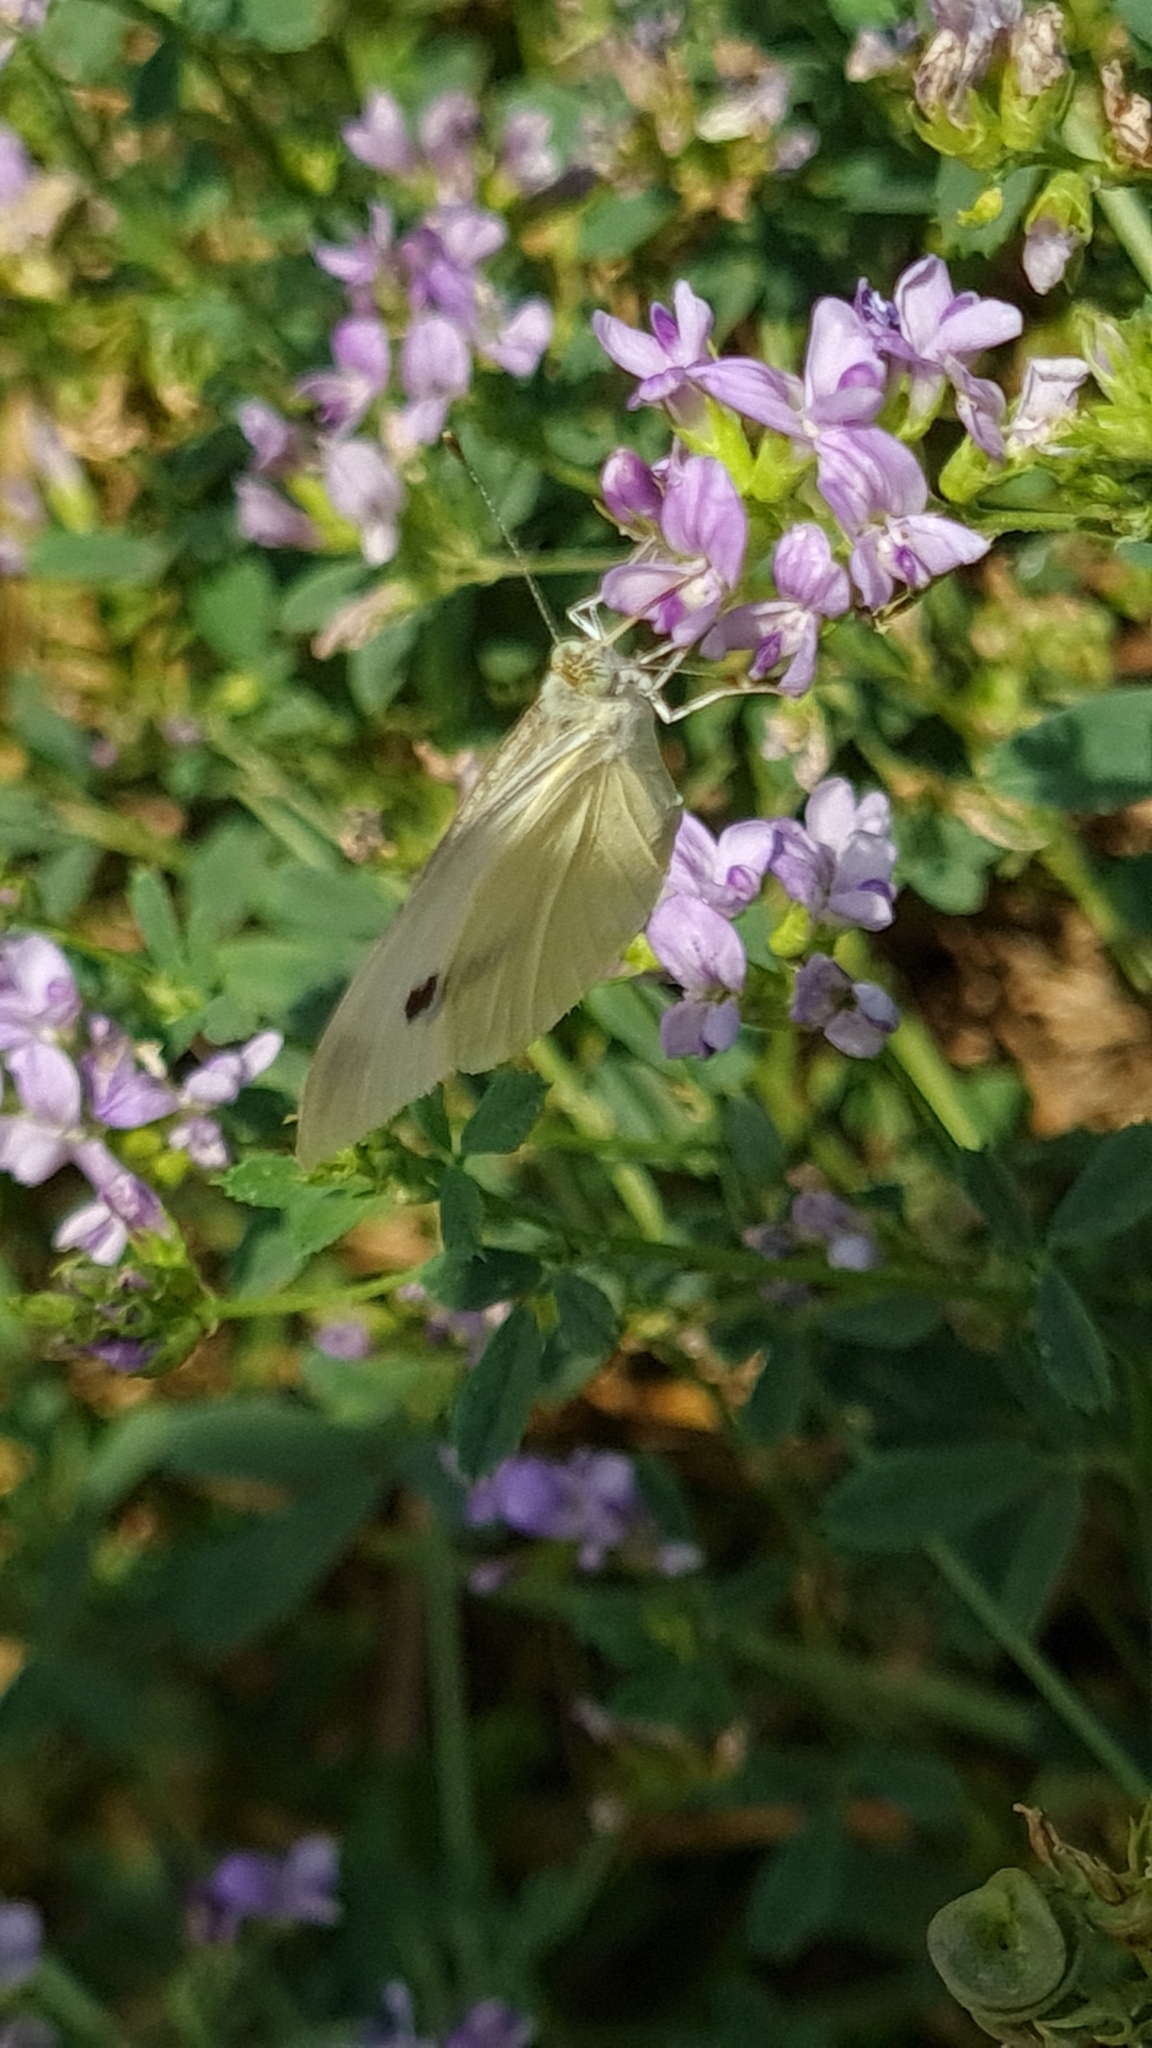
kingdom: Animalia
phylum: Arthropoda
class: Insecta
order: Lepidoptera
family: Pieridae
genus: Pieris
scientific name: Pieris rapae
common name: Small white
